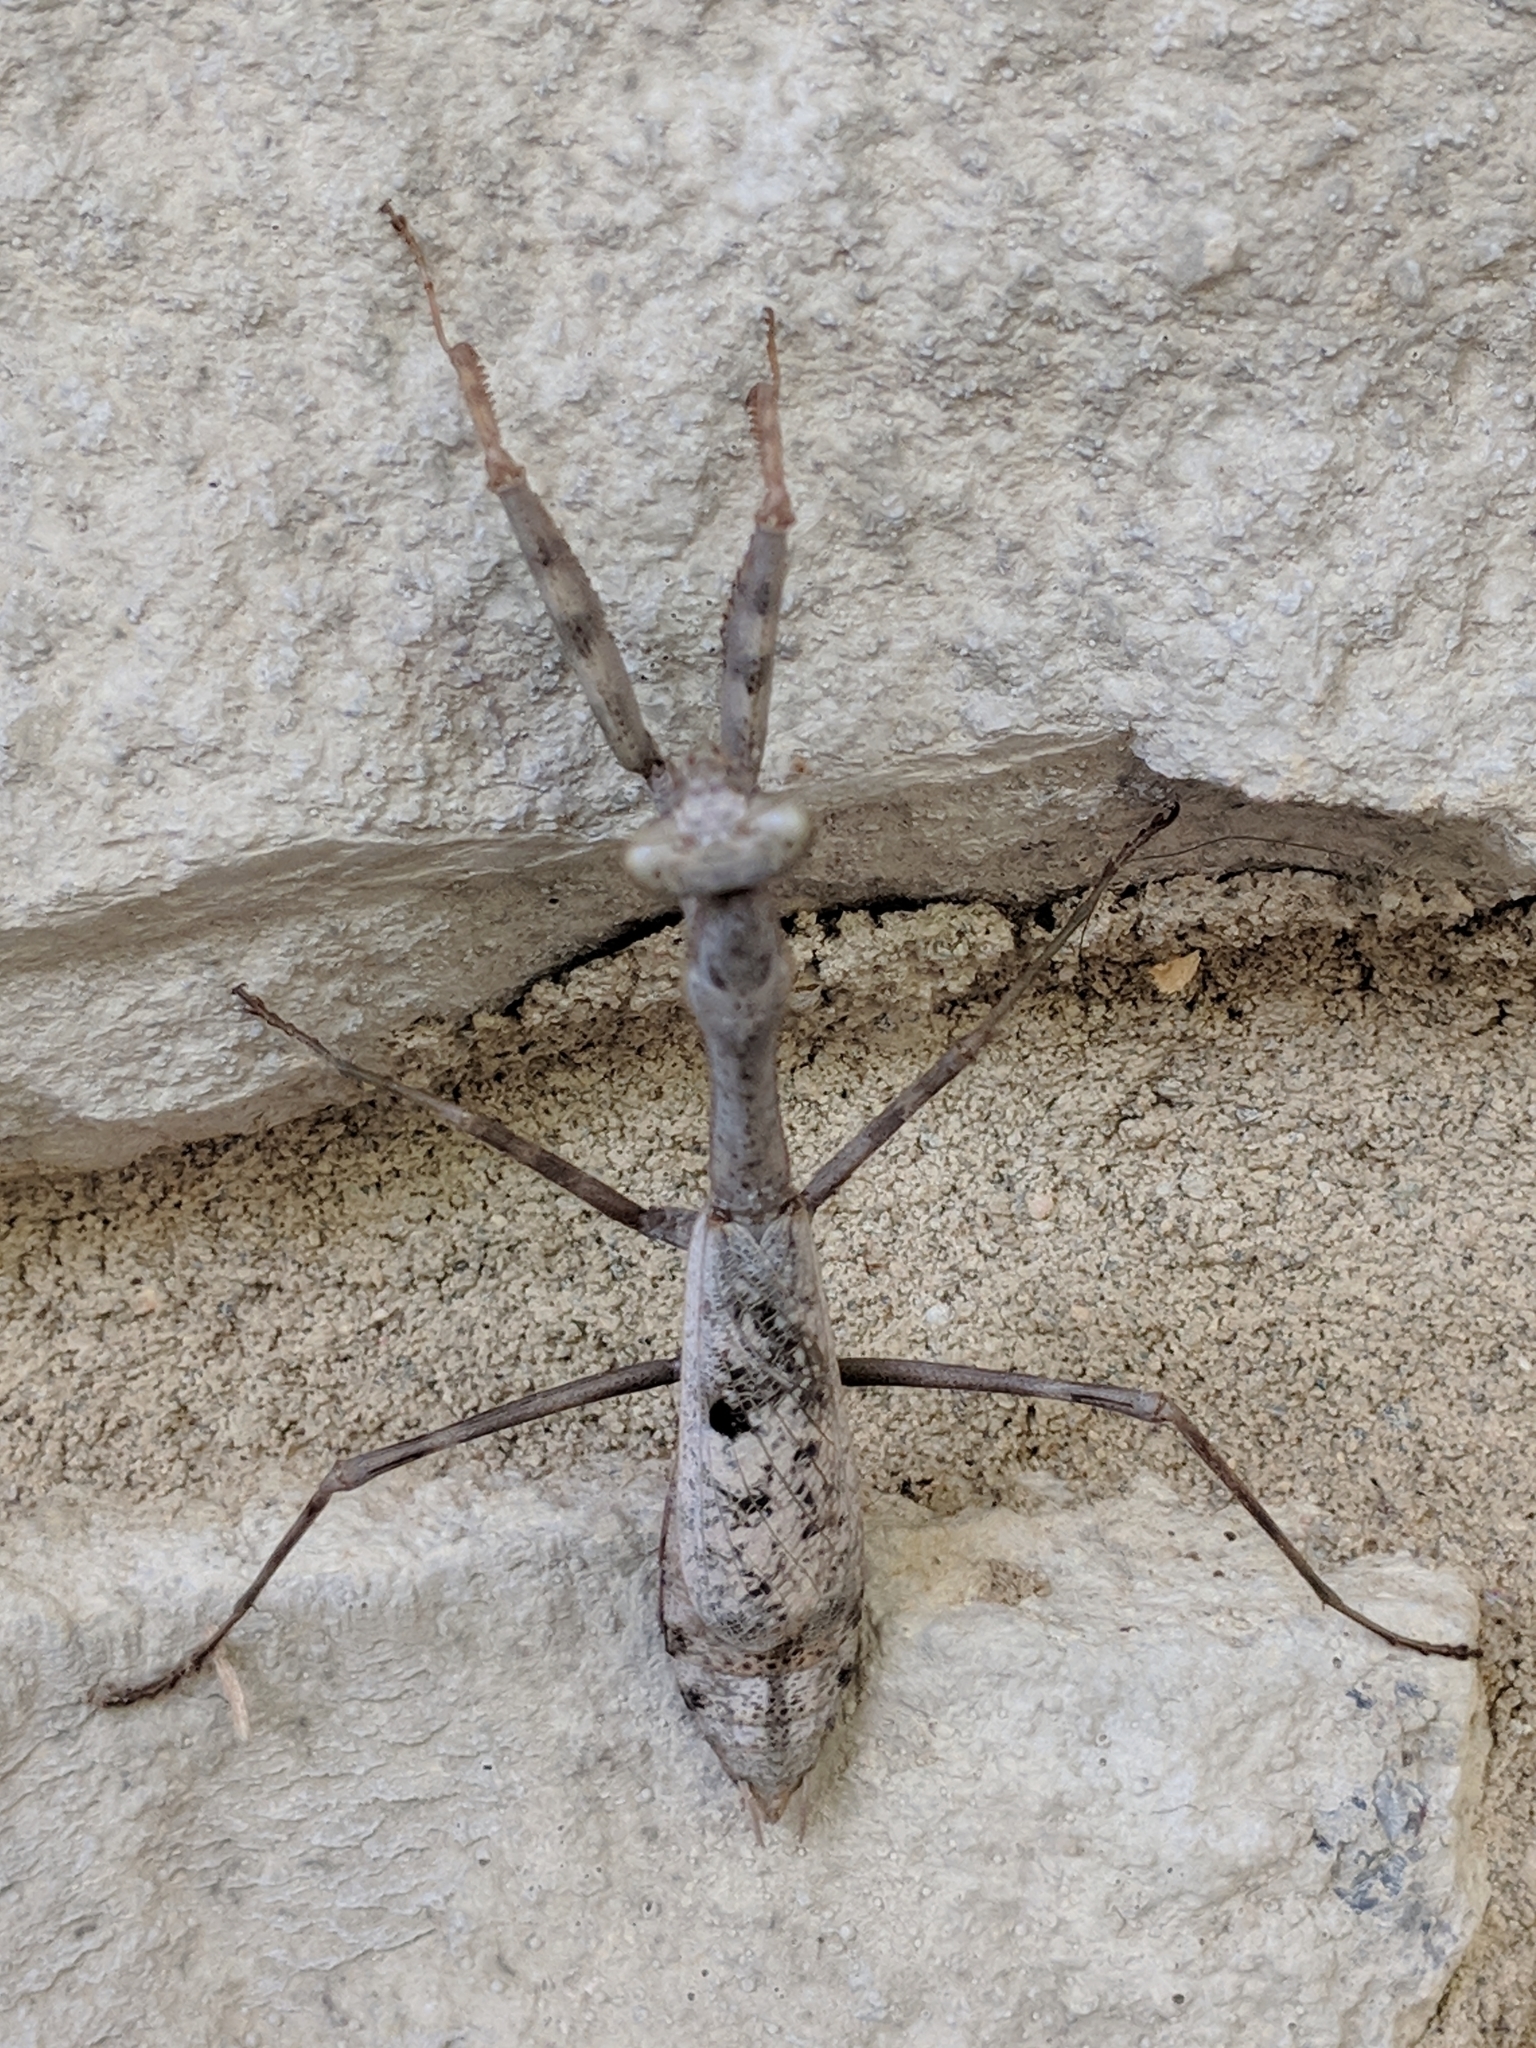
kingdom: Animalia
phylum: Arthropoda
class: Insecta
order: Mantodea
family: Mantidae
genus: Stagmomantis
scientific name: Stagmomantis carolina
